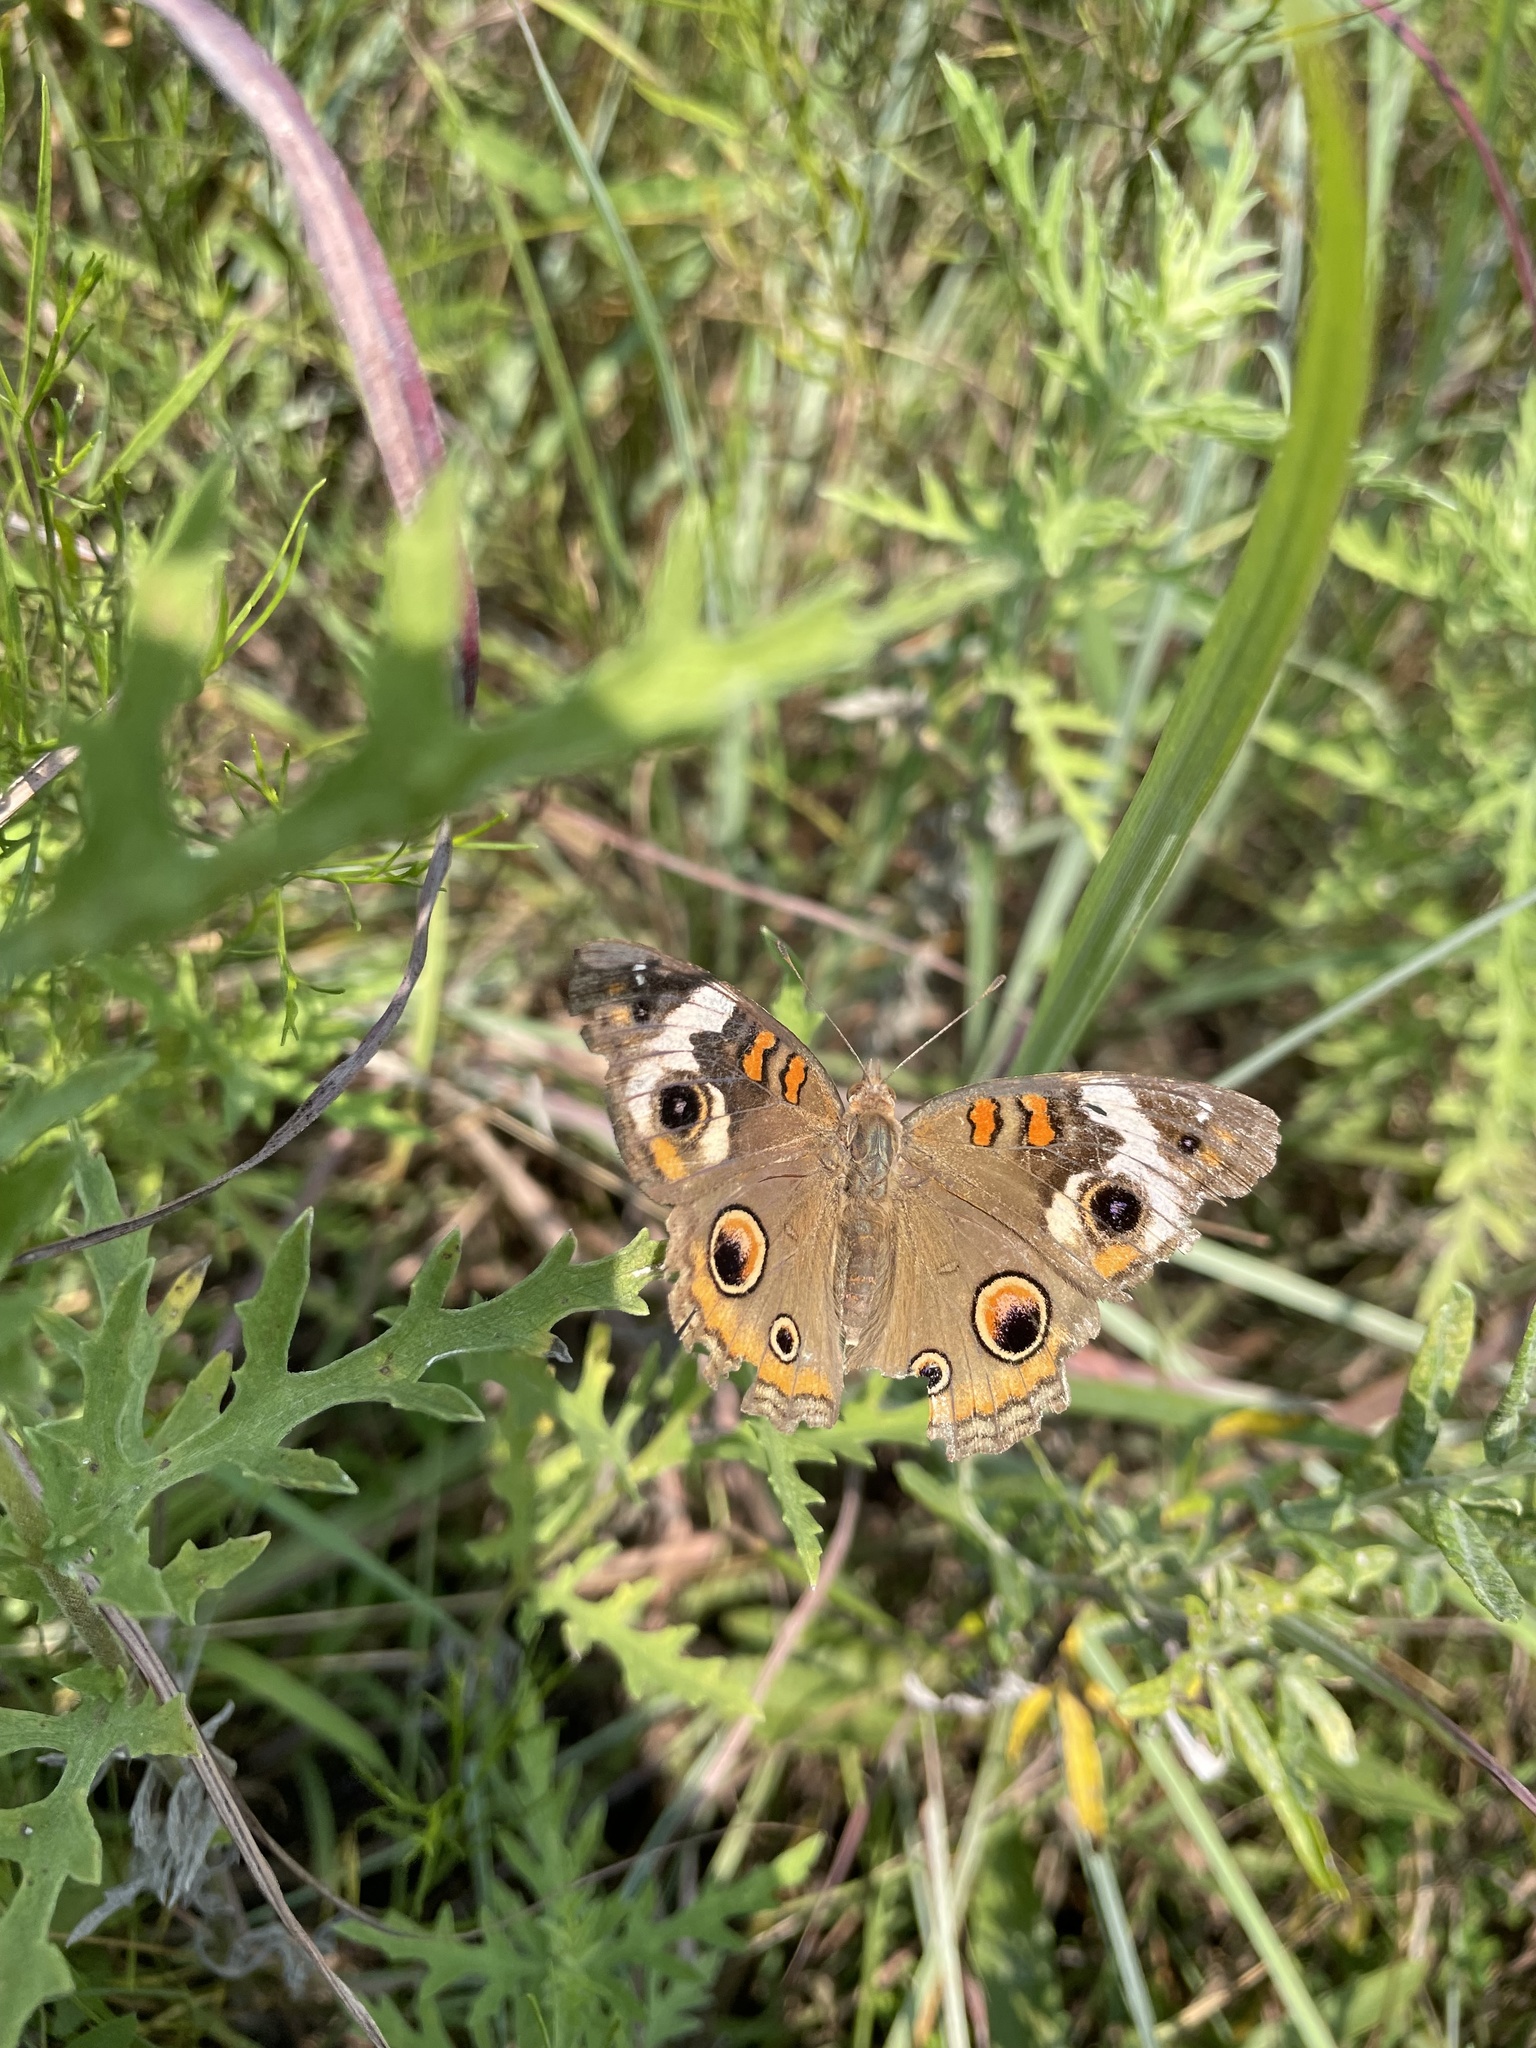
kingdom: Animalia
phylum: Arthropoda
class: Insecta
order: Lepidoptera
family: Nymphalidae
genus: Junonia
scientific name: Junonia coenia
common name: Common buckeye
